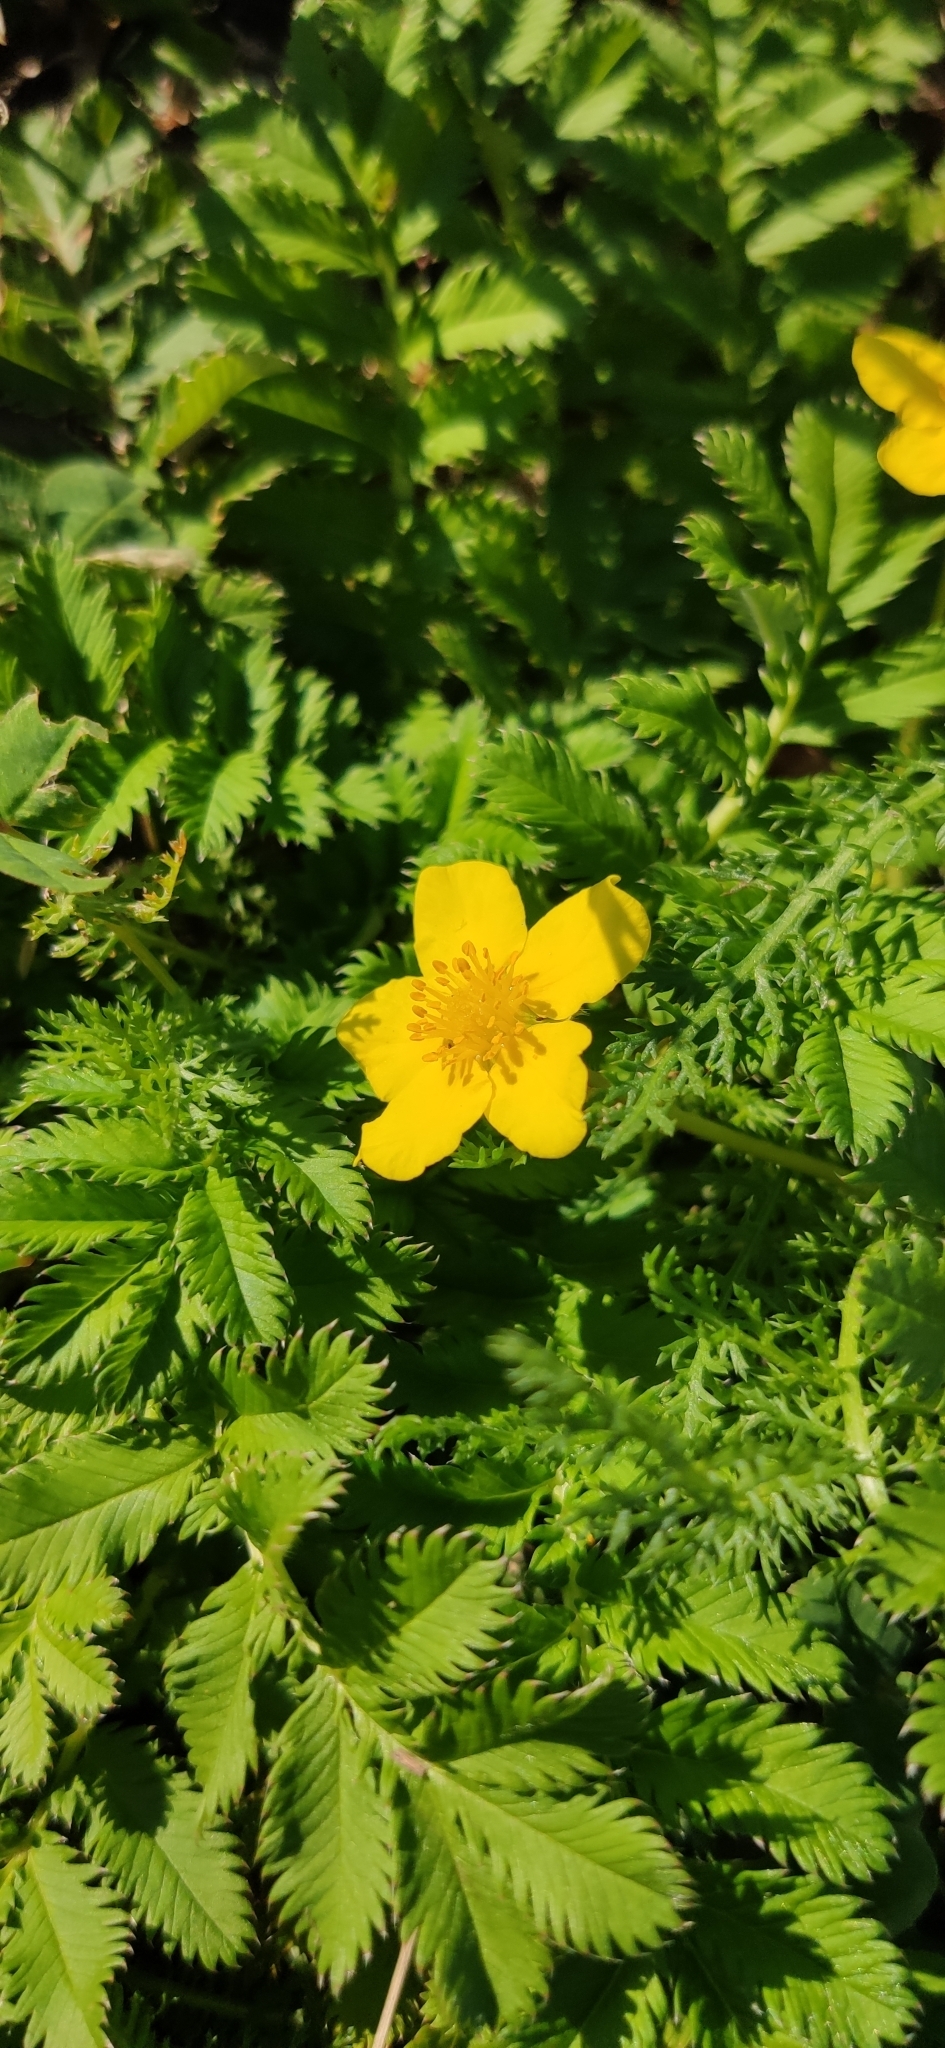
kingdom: Plantae
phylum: Tracheophyta
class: Magnoliopsida
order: Rosales
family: Rosaceae
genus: Argentina
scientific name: Argentina anserina
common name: Common silverweed
